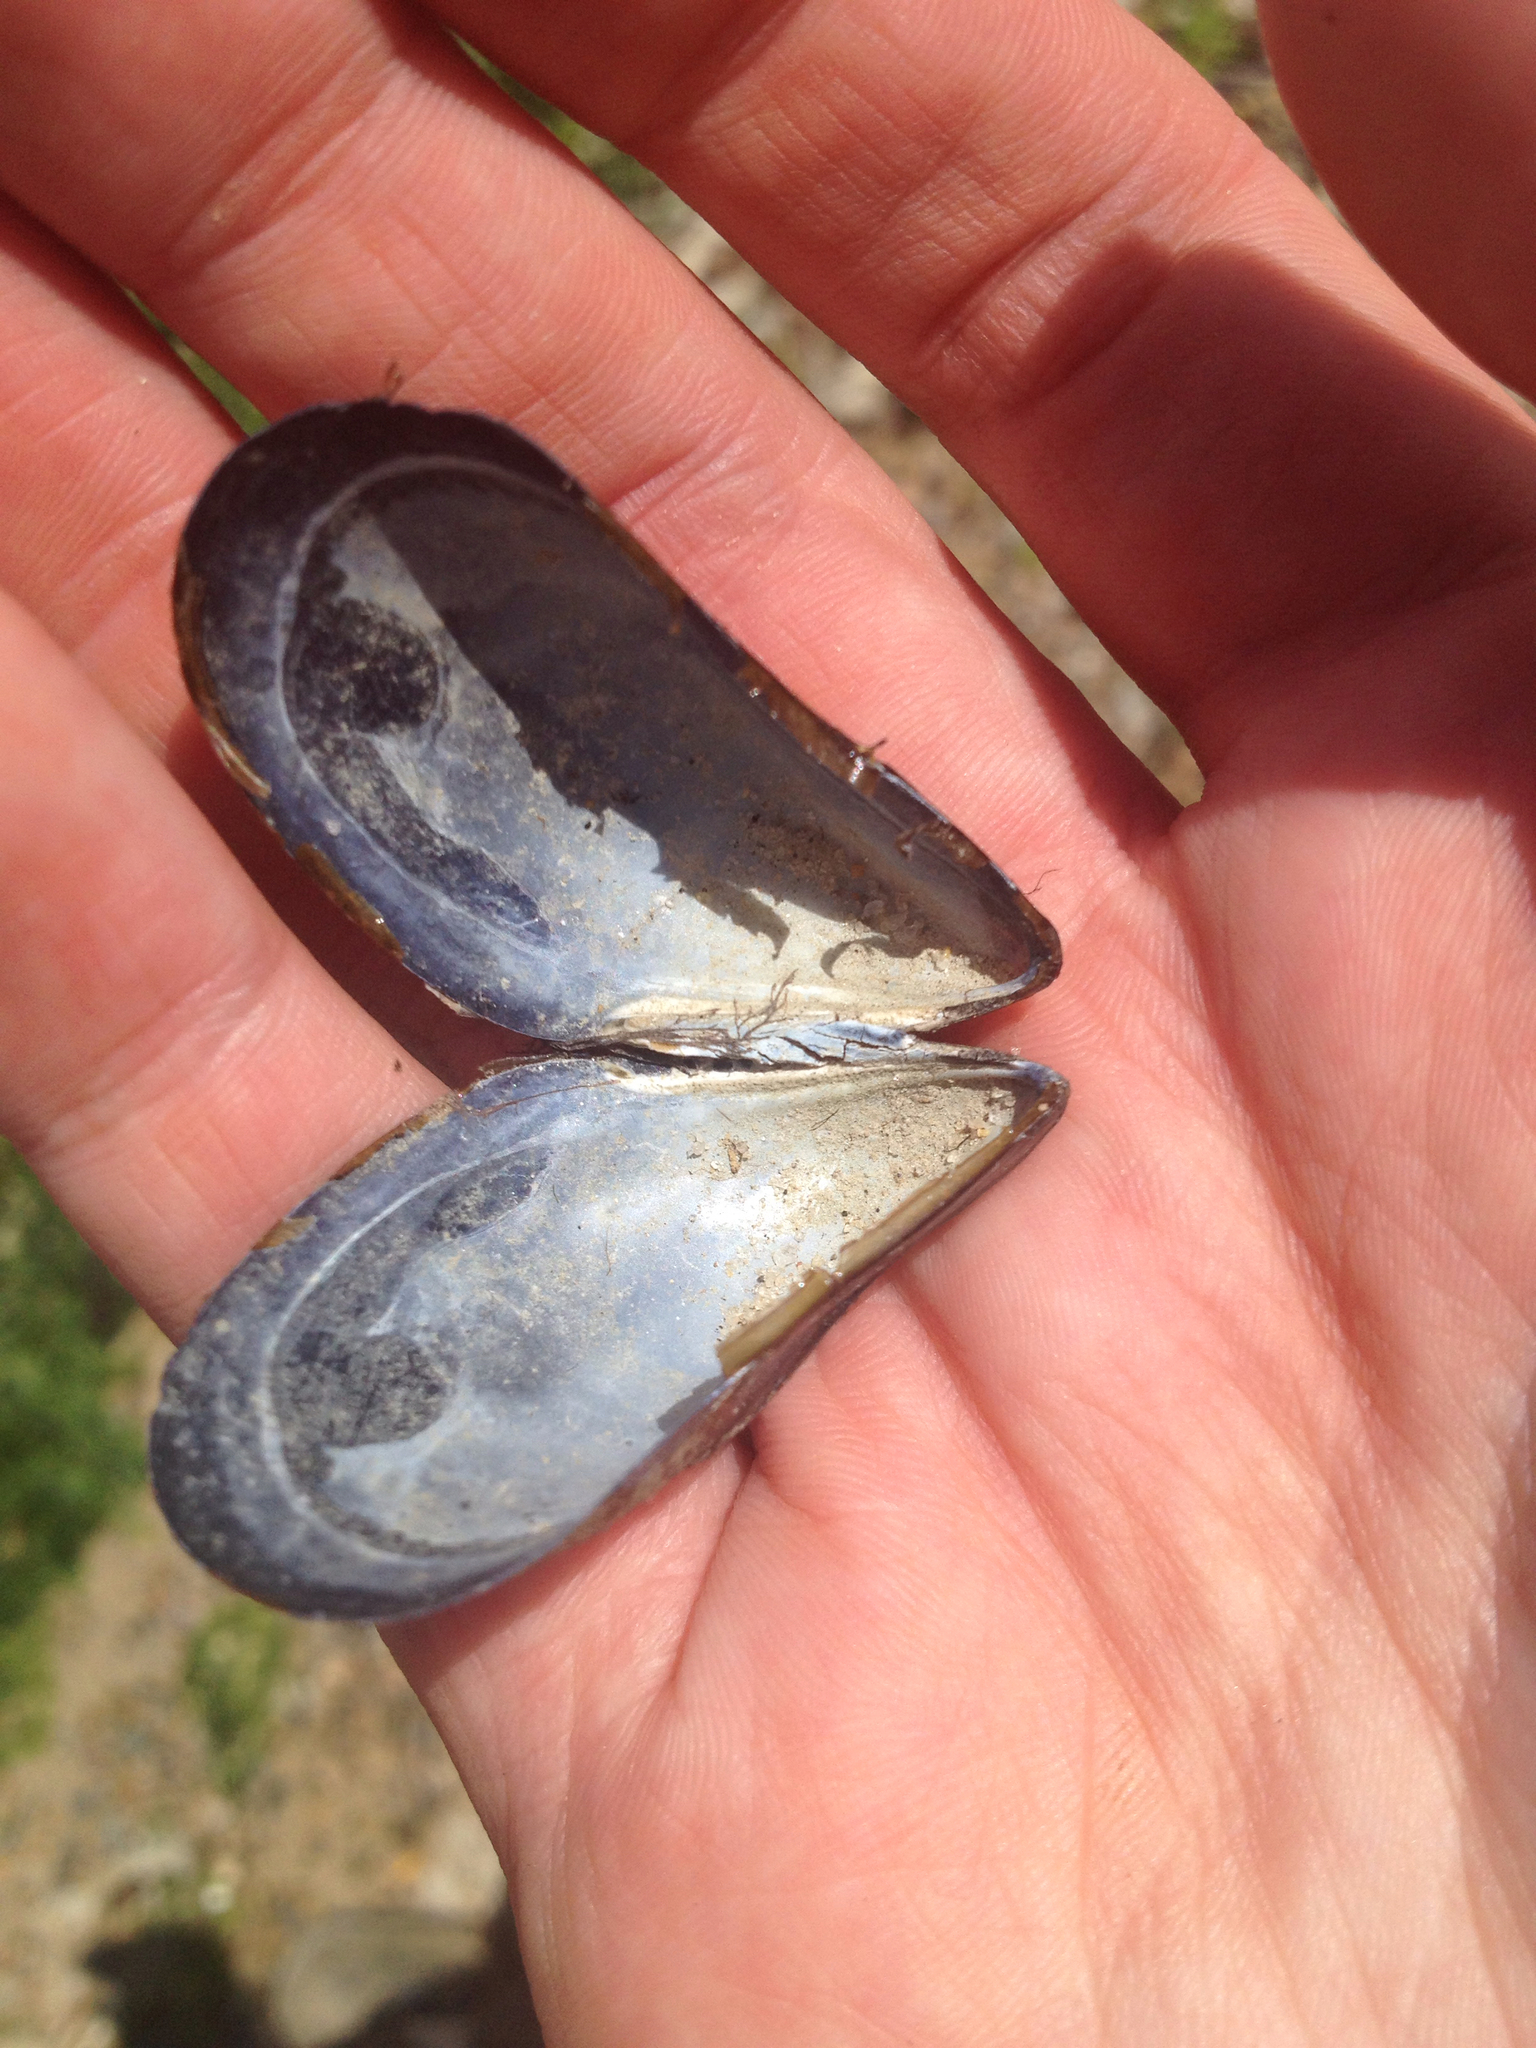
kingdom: Animalia
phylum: Mollusca
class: Bivalvia
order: Mytilida
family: Mytilidae
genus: Mytilus
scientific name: Mytilus edulis
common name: Blue mussel
